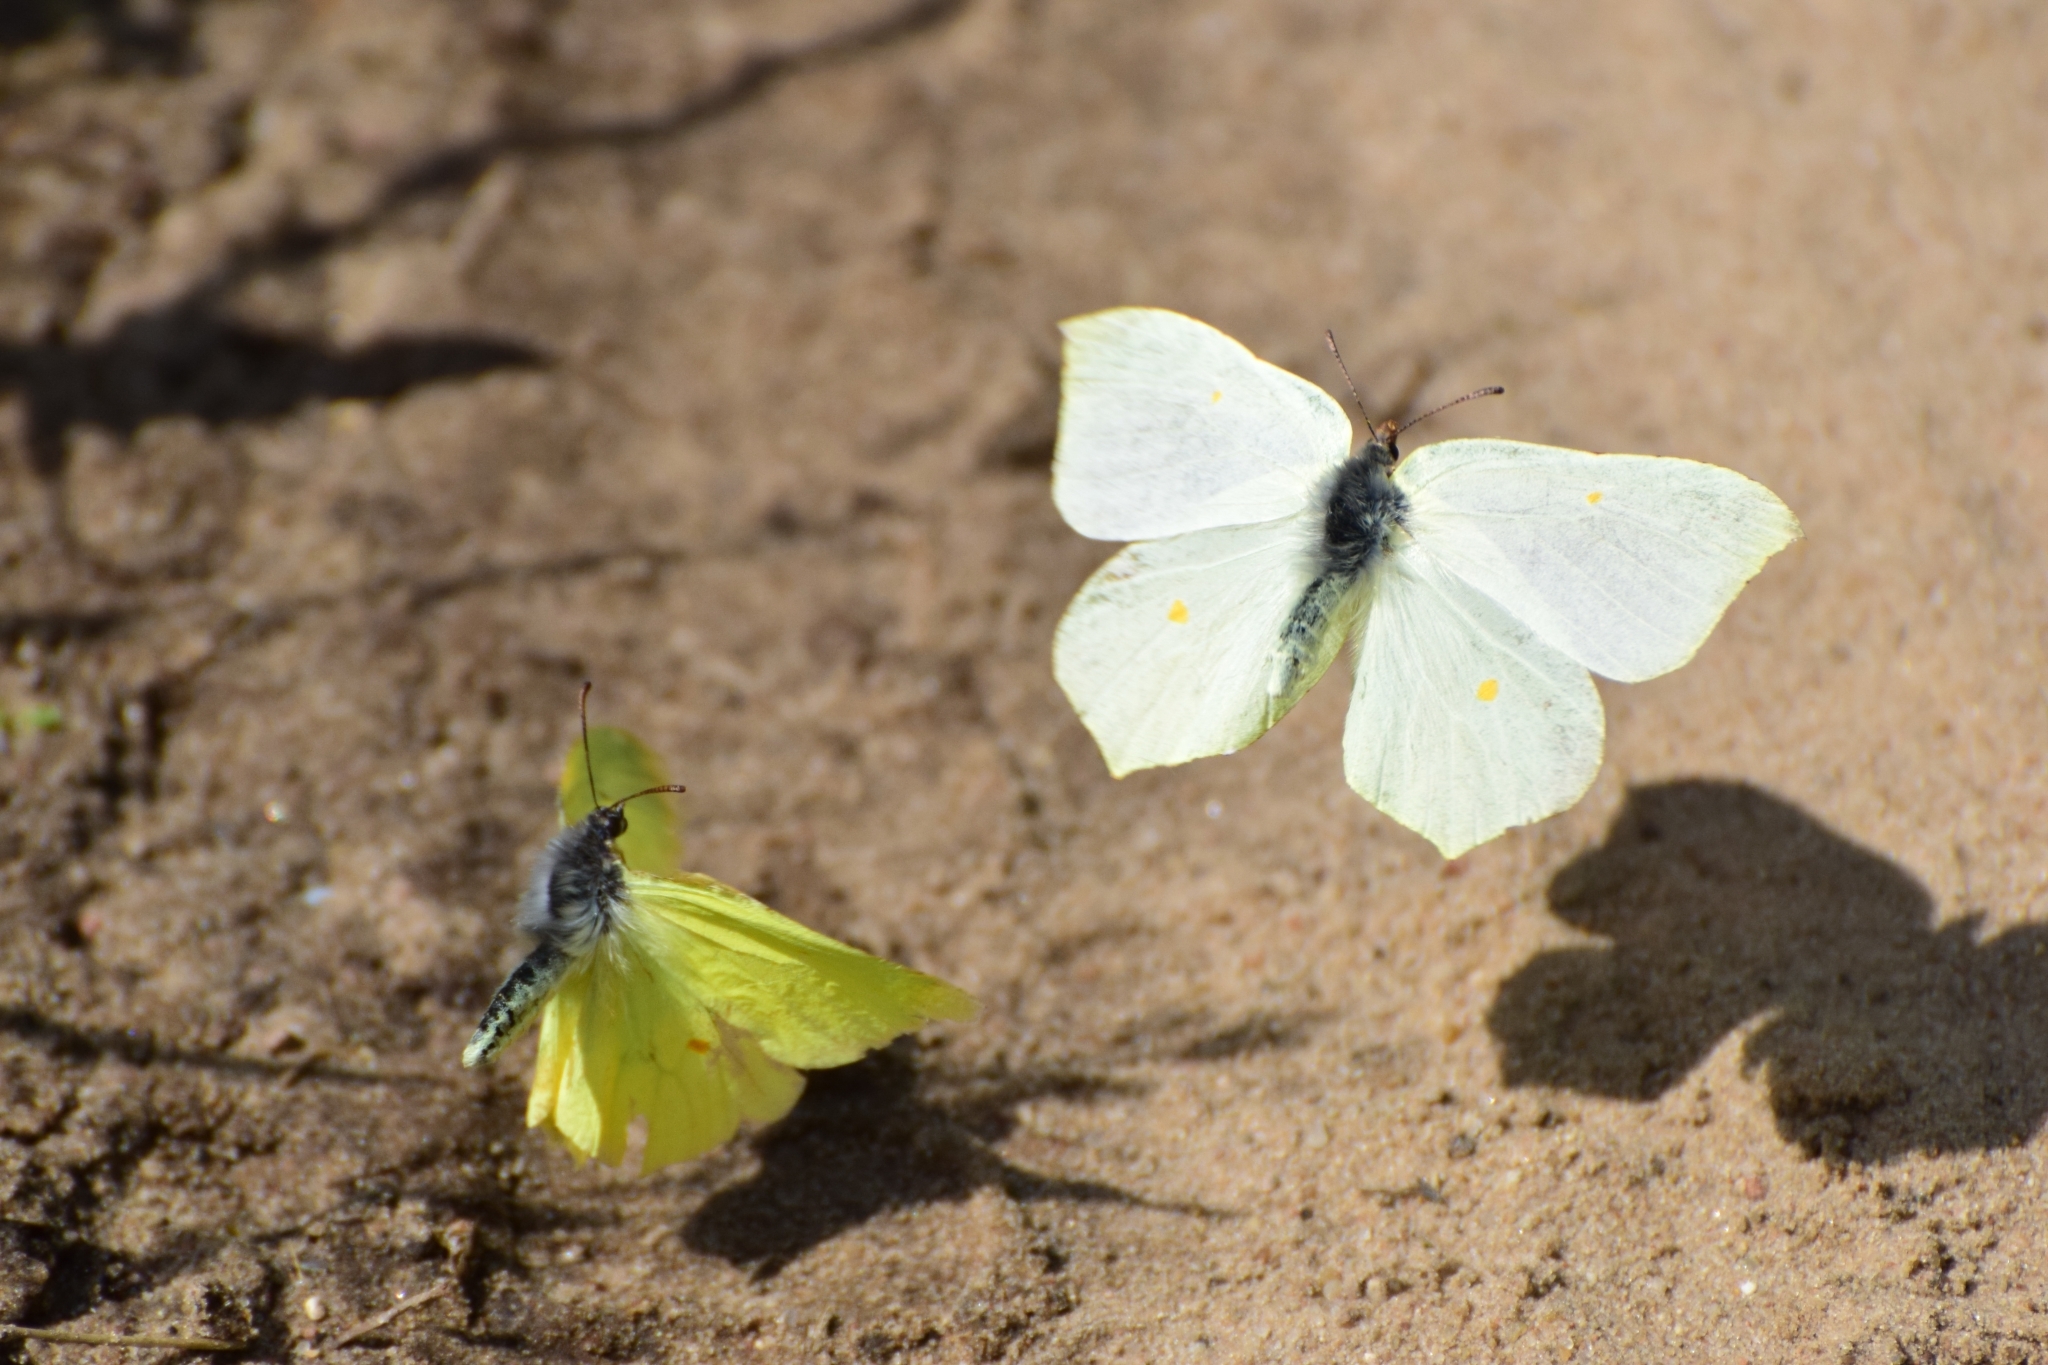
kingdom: Animalia
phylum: Arthropoda
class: Insecta
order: Lepidoptera
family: Pieridae
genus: Gonepteryx
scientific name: Gonepteryx rhamni
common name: Brimstone
